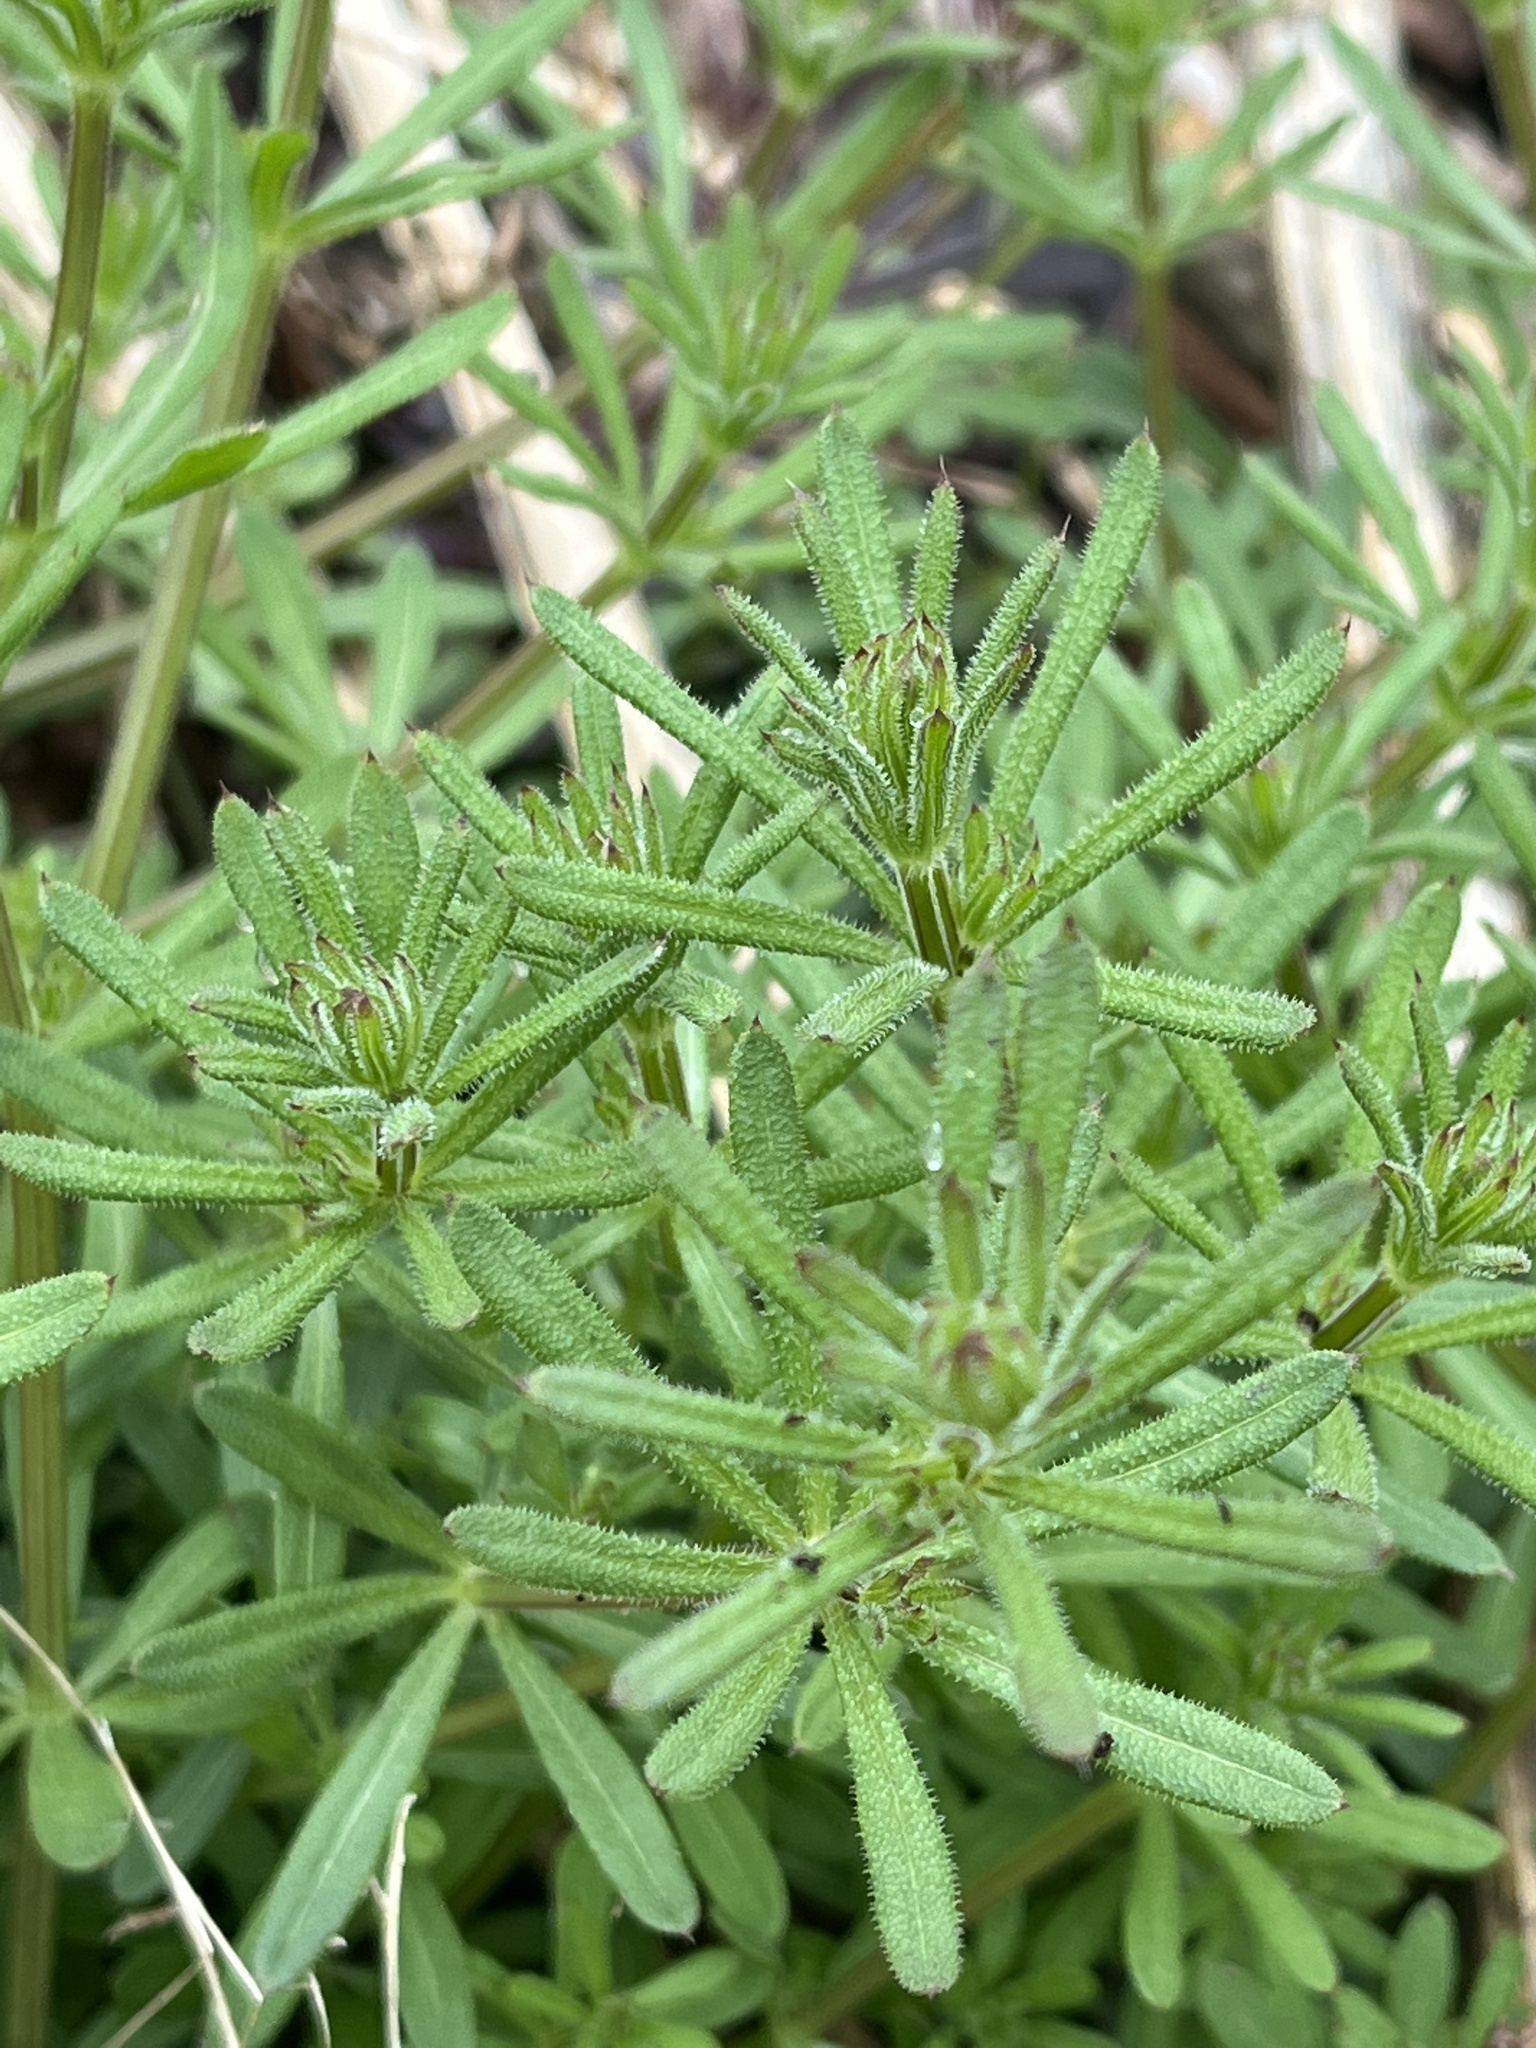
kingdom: Plantae
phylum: Tracheophyta
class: Magnoliopsida
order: Gentianales
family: Rubiaceae
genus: Galium
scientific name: Galium aparine
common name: Cleavers
